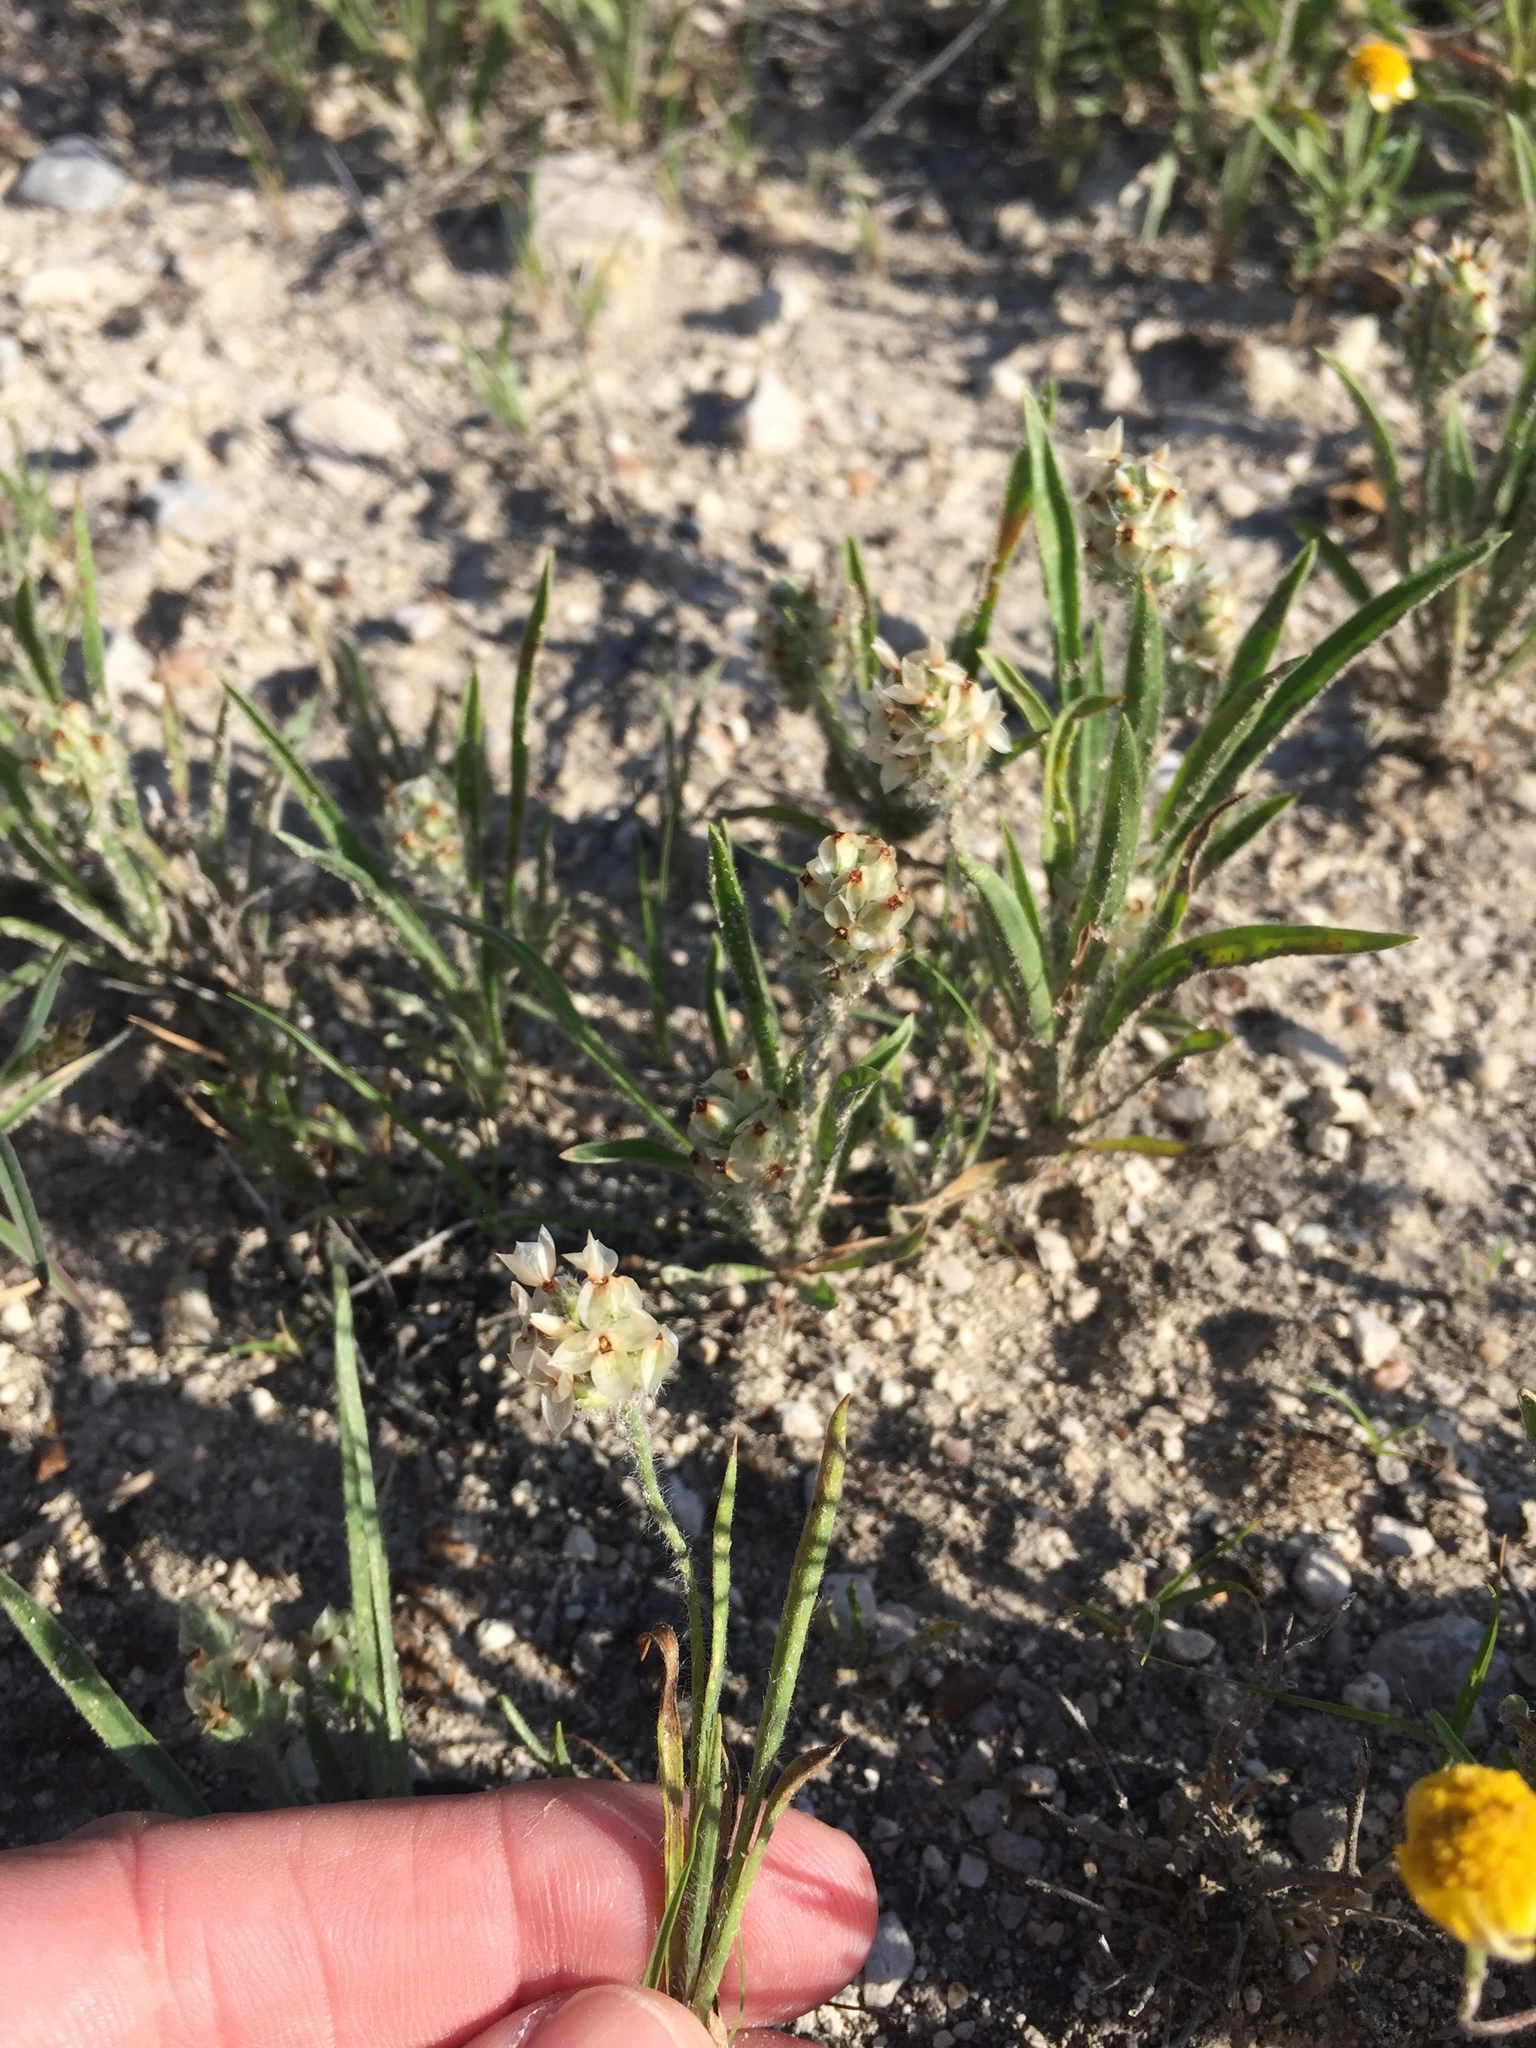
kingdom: Plantae
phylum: Tracheophyta
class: Magnoliopsida
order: Lamiales
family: Plantaginaceae
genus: Plantago
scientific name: Plantago helleri
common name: Heller's plantain
